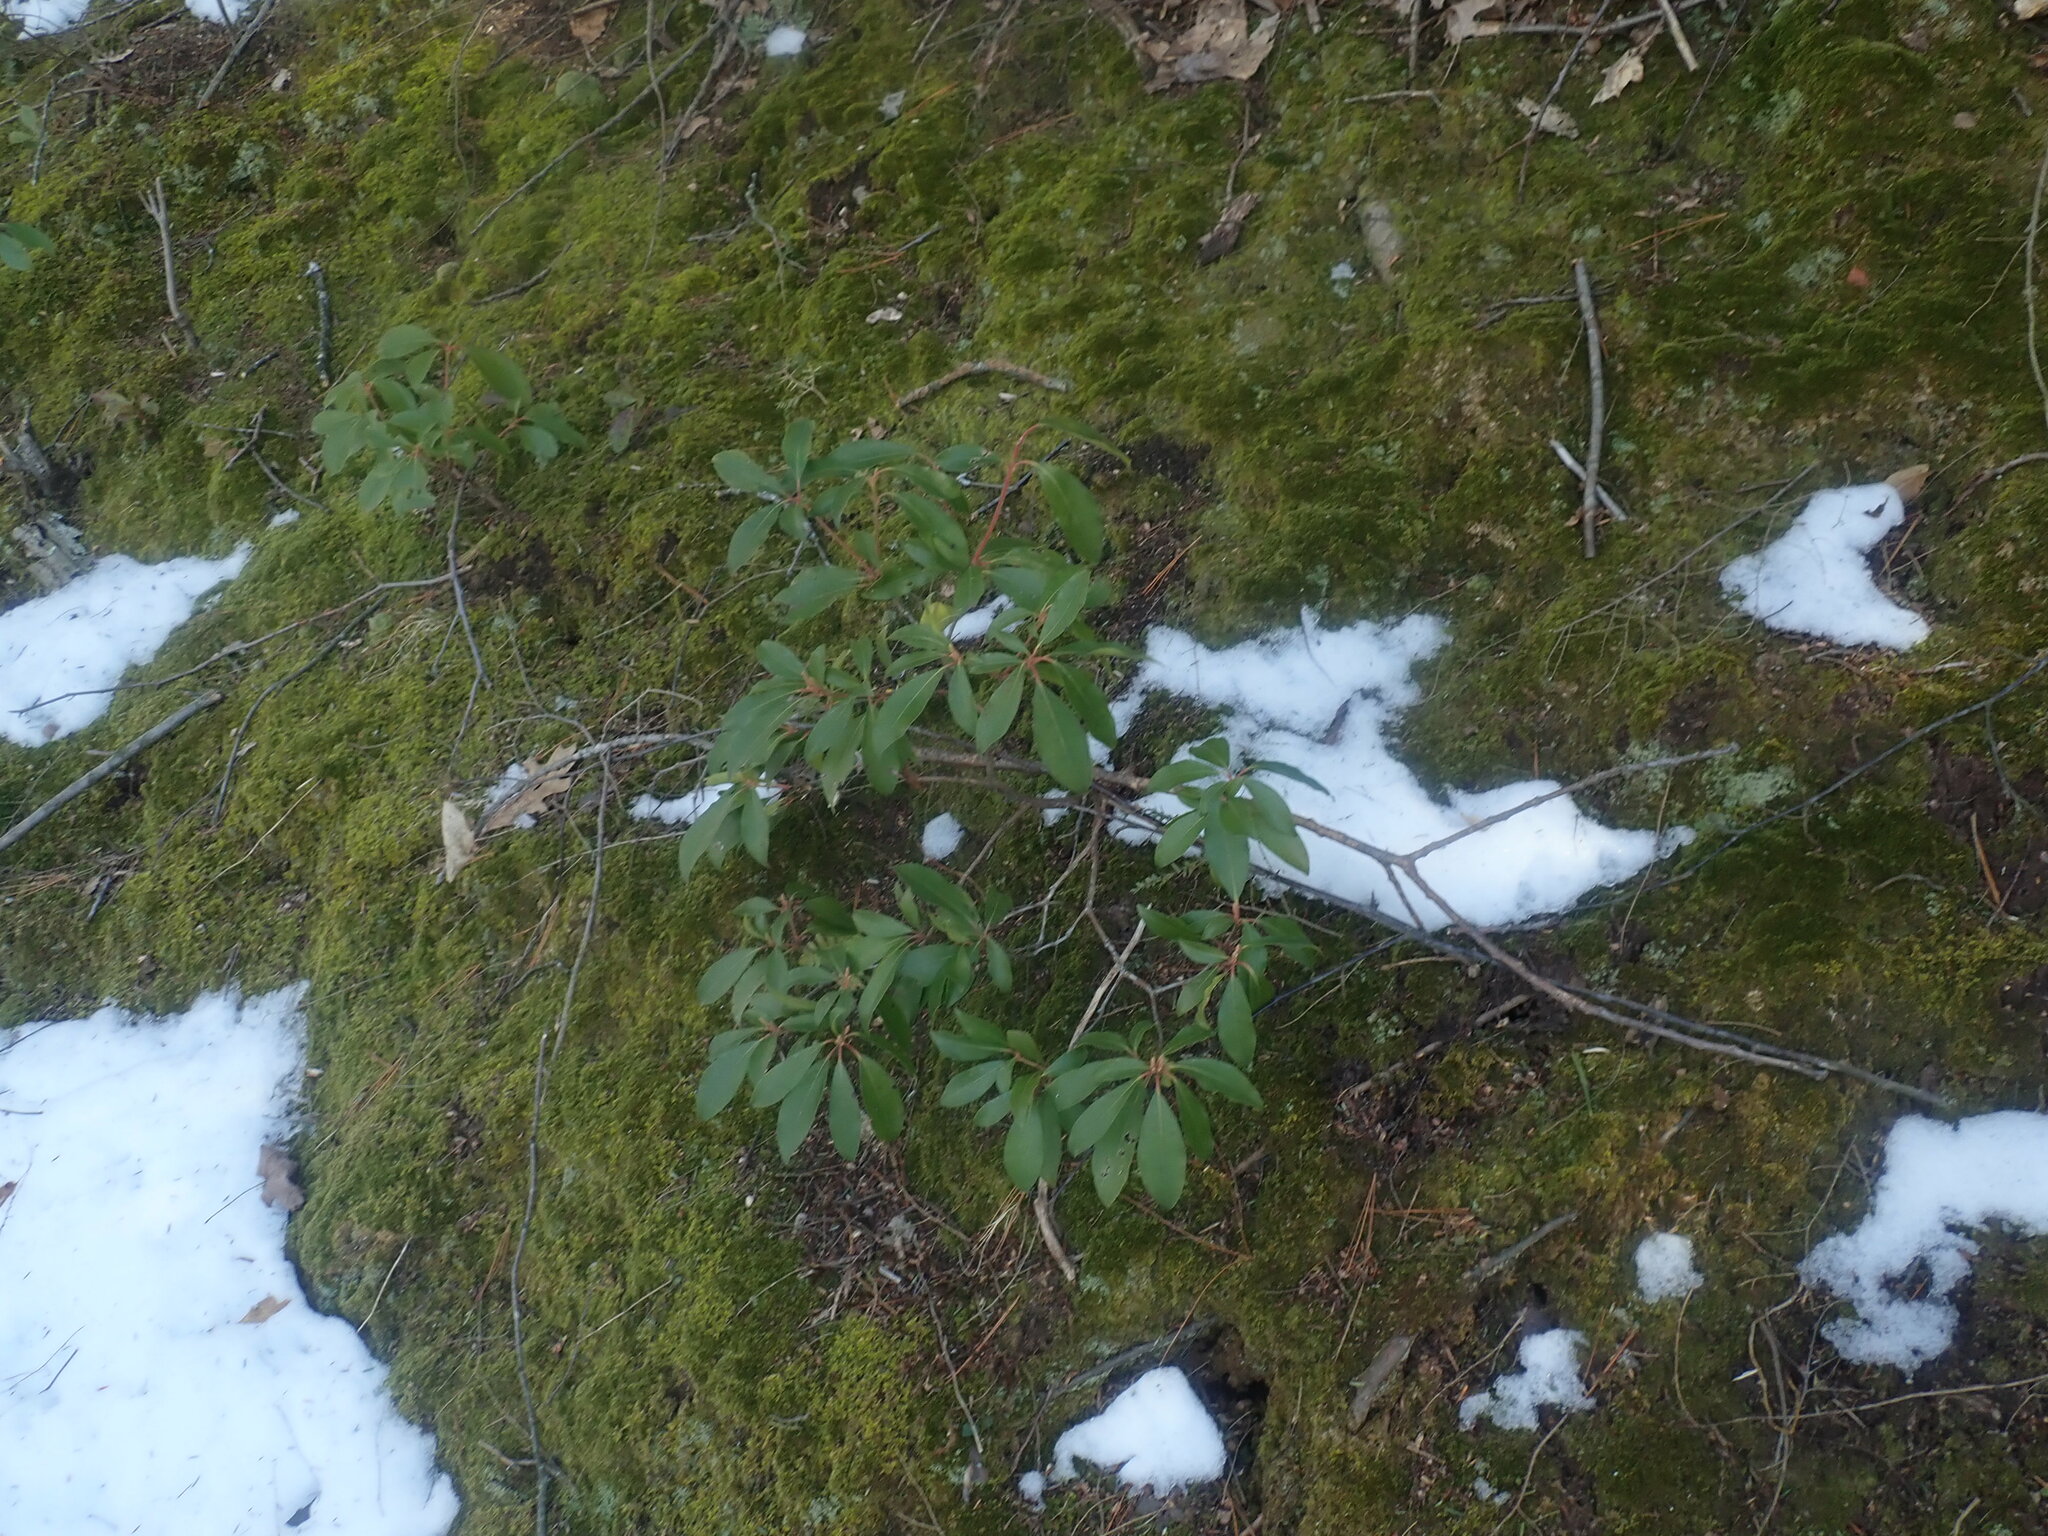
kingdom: Plantae
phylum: Tracheophyta
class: Magnoliopsida
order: Ericales
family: Ericaceae
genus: Kalmia
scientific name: Kalmia latifolia
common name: Mountain-laurel
